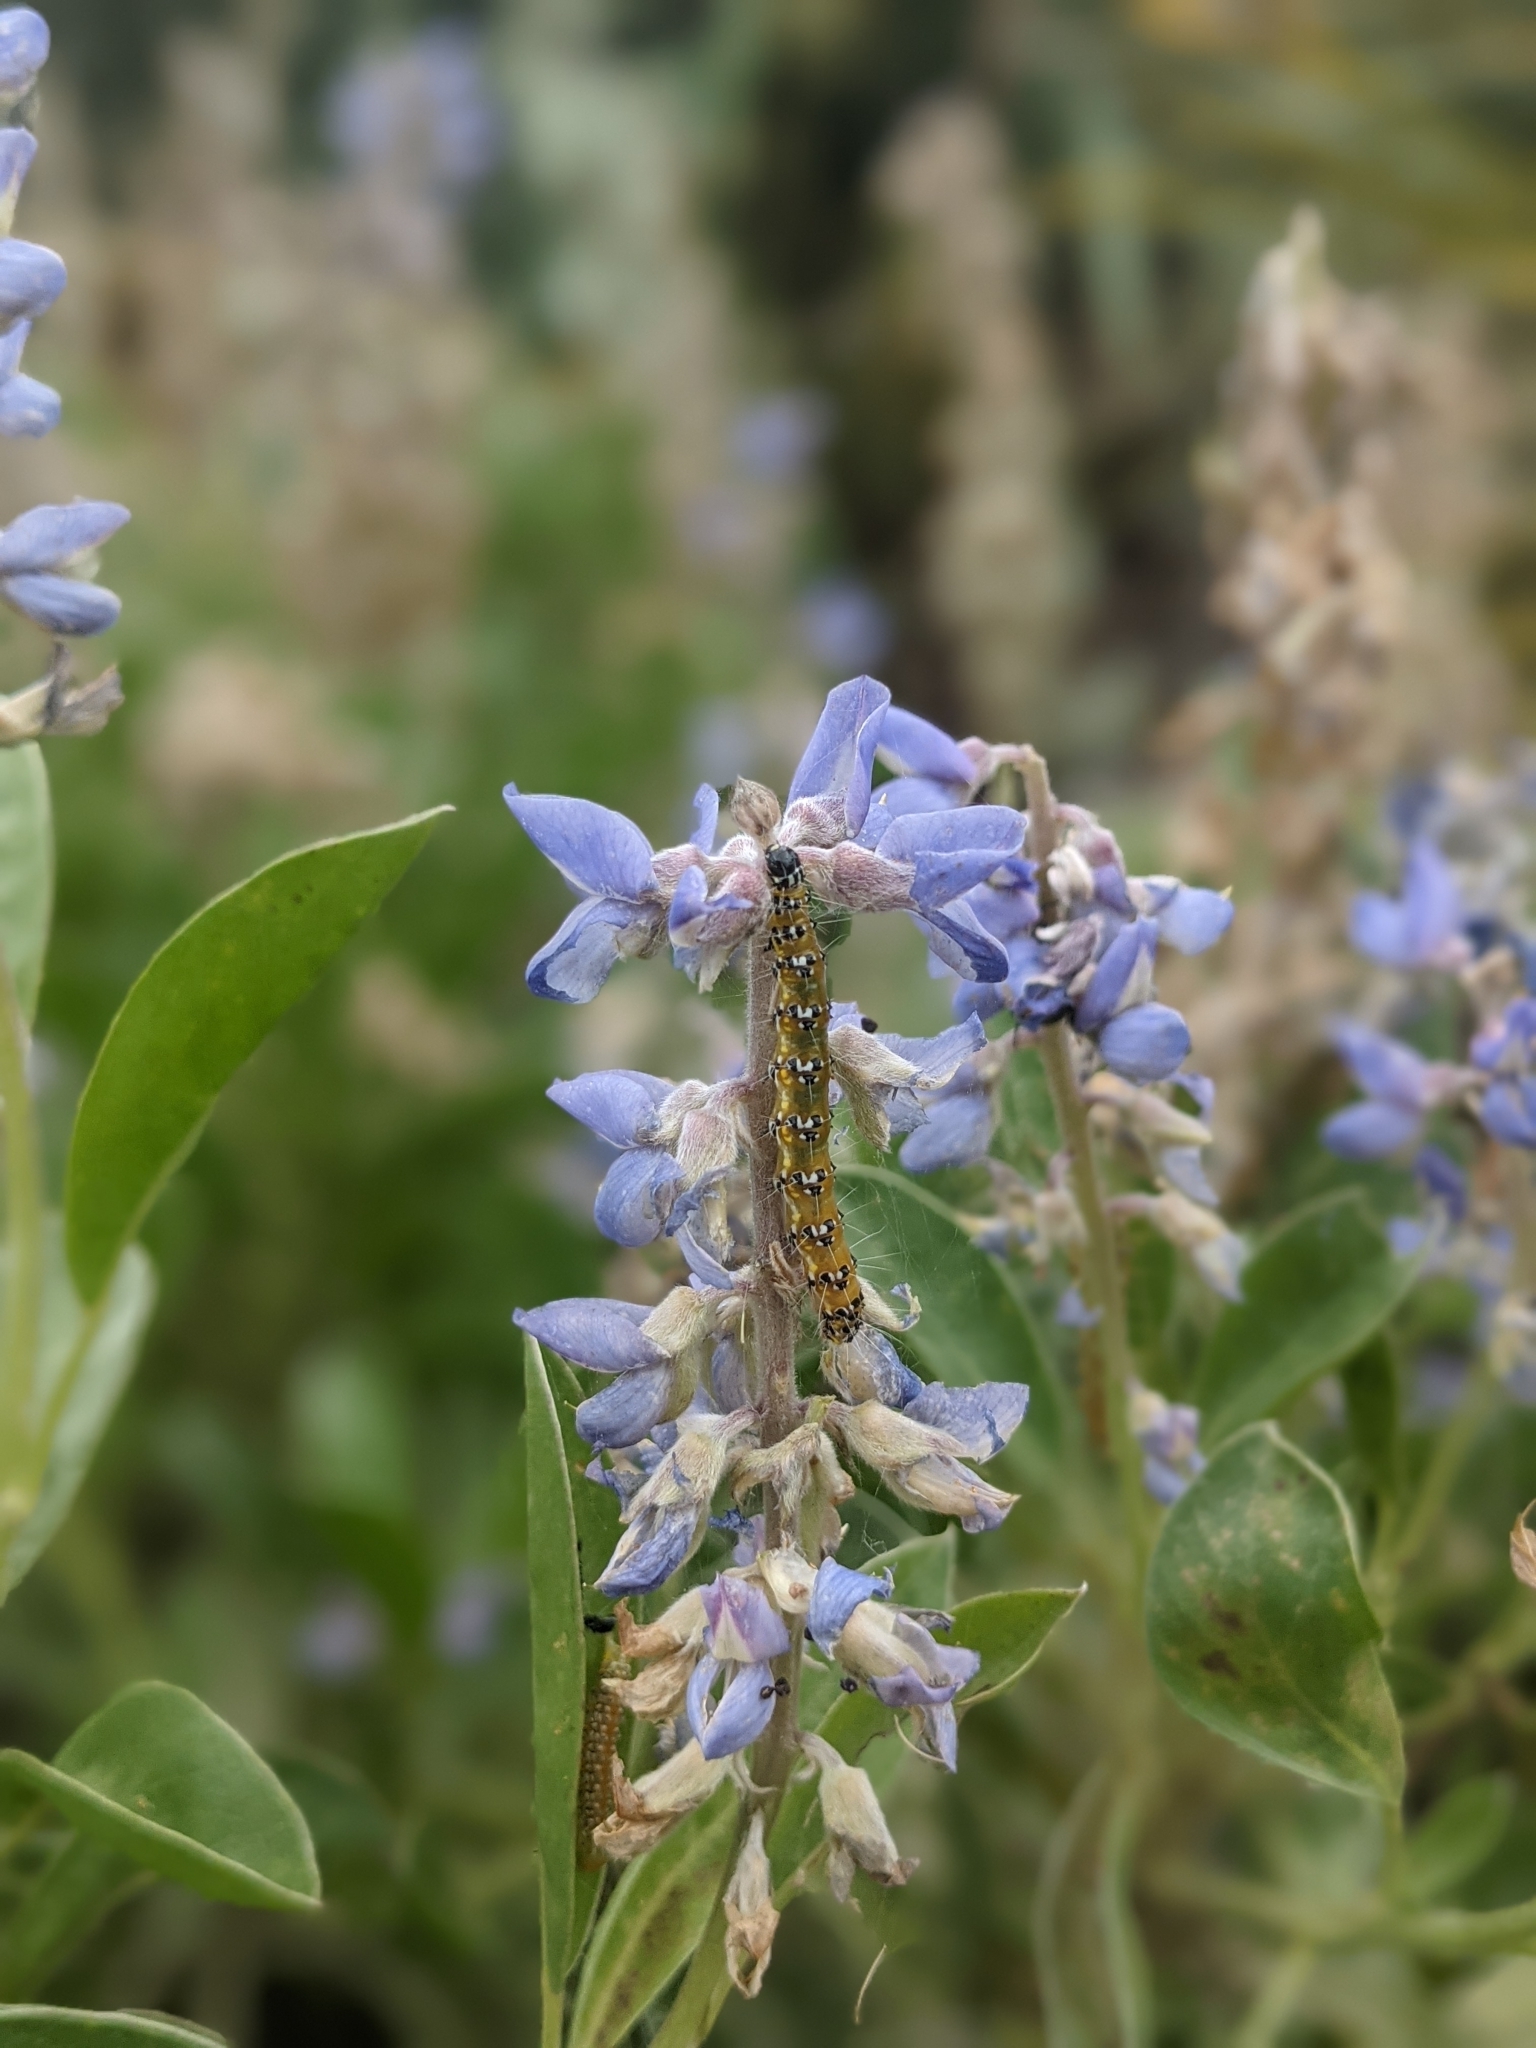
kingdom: Animalia
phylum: Arthropoda
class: Insecta
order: Lepidoptera
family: Crambidae
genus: Uresiphita
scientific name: Uresiphita reversalis
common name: Genista broom moth
